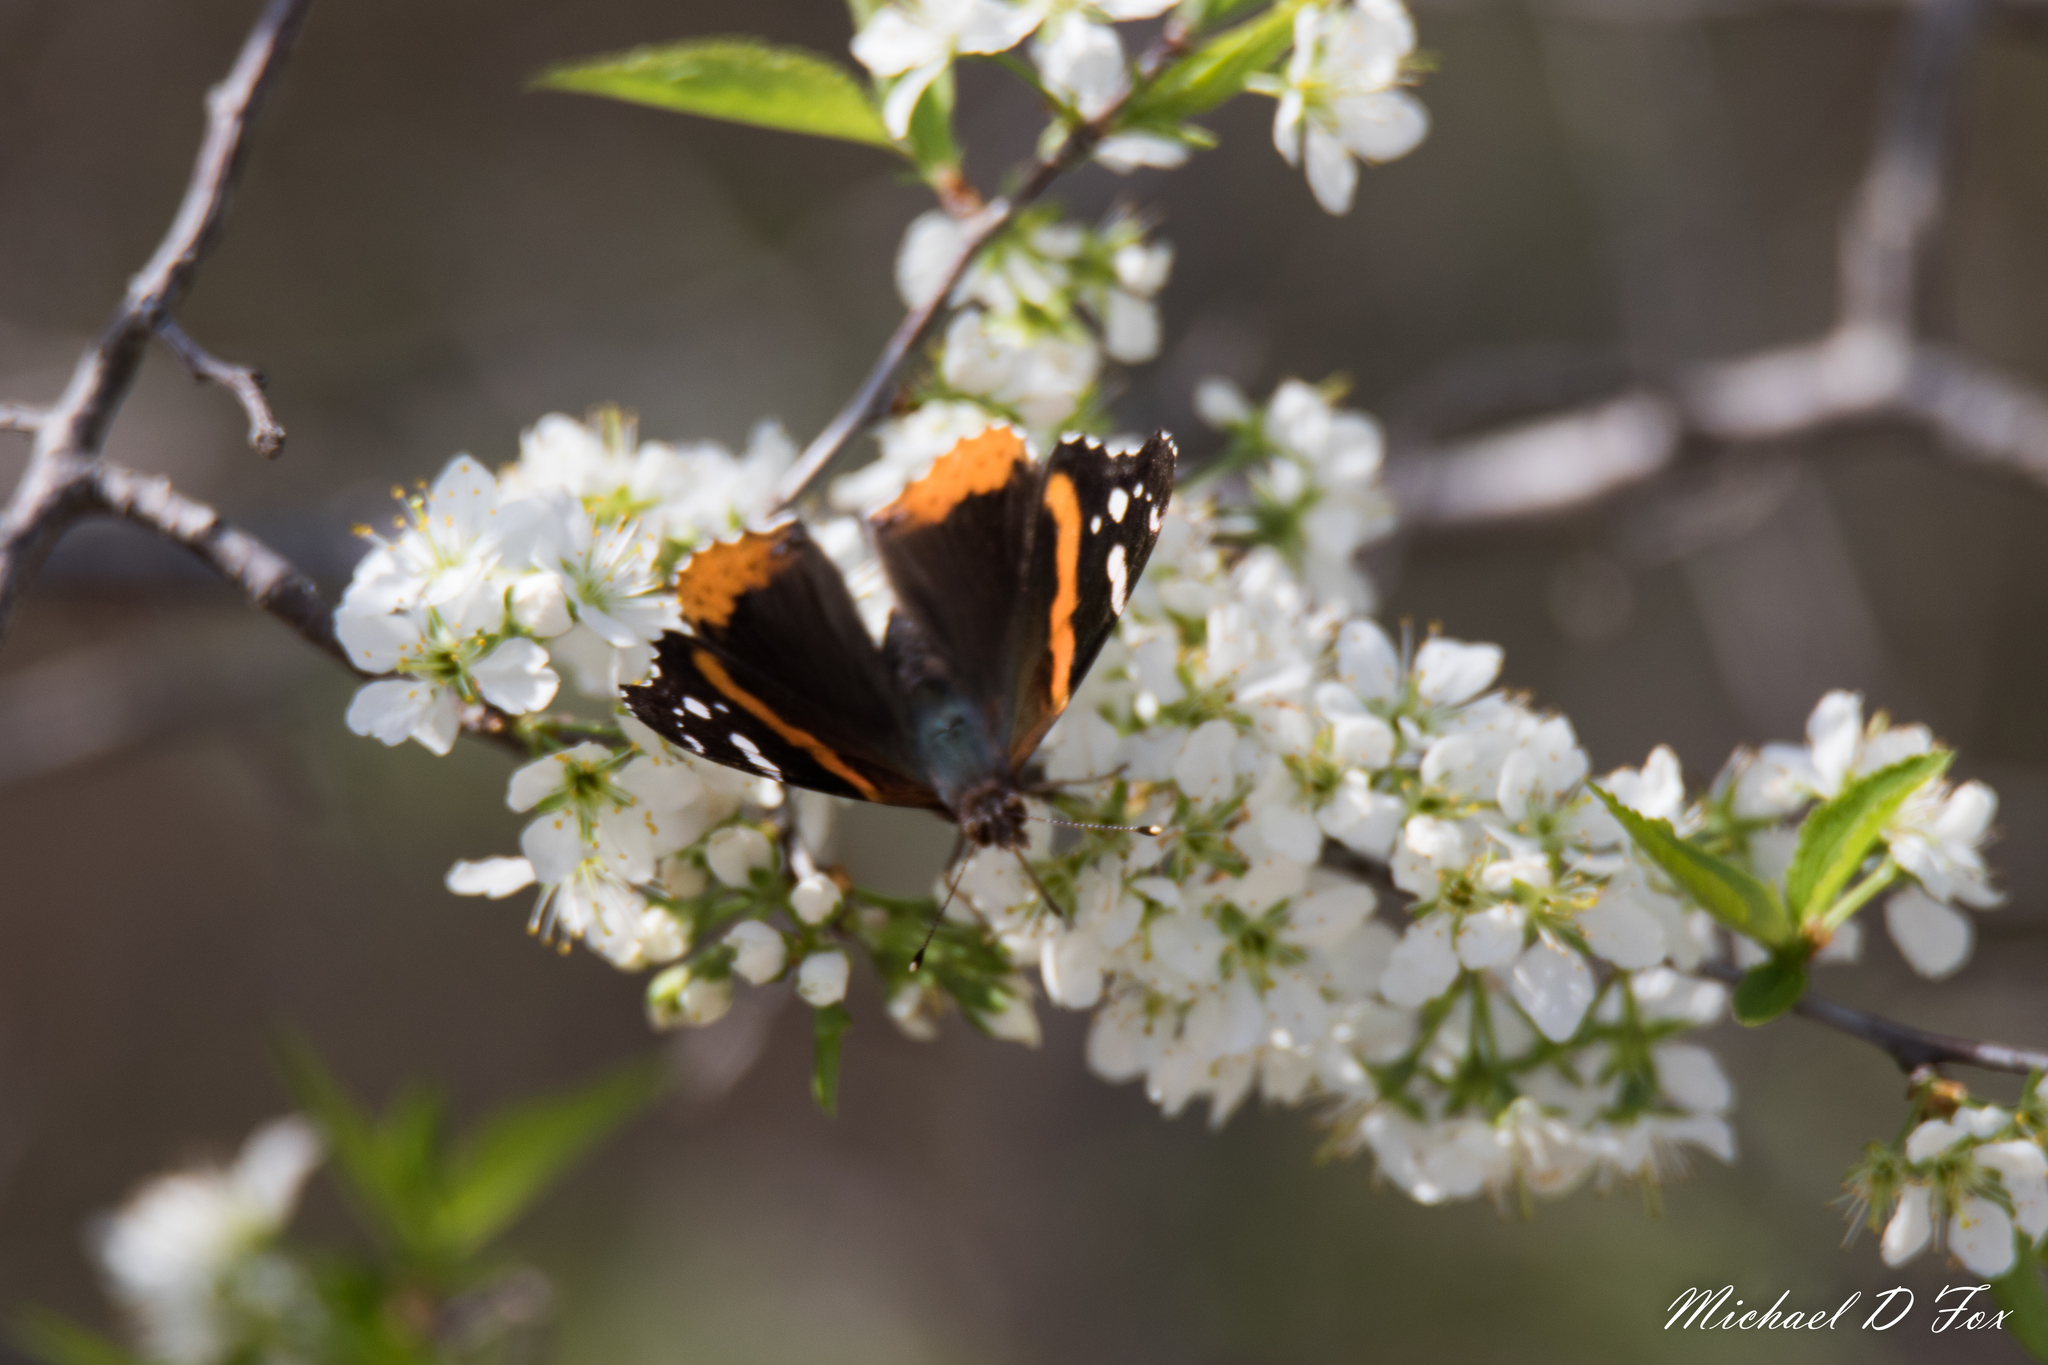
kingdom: Animalia
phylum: Arthropoda
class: Insecta
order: Lepidoptera
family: Nymphalidae
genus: Vanessa
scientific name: Vanessa atalanta
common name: Red admiral
